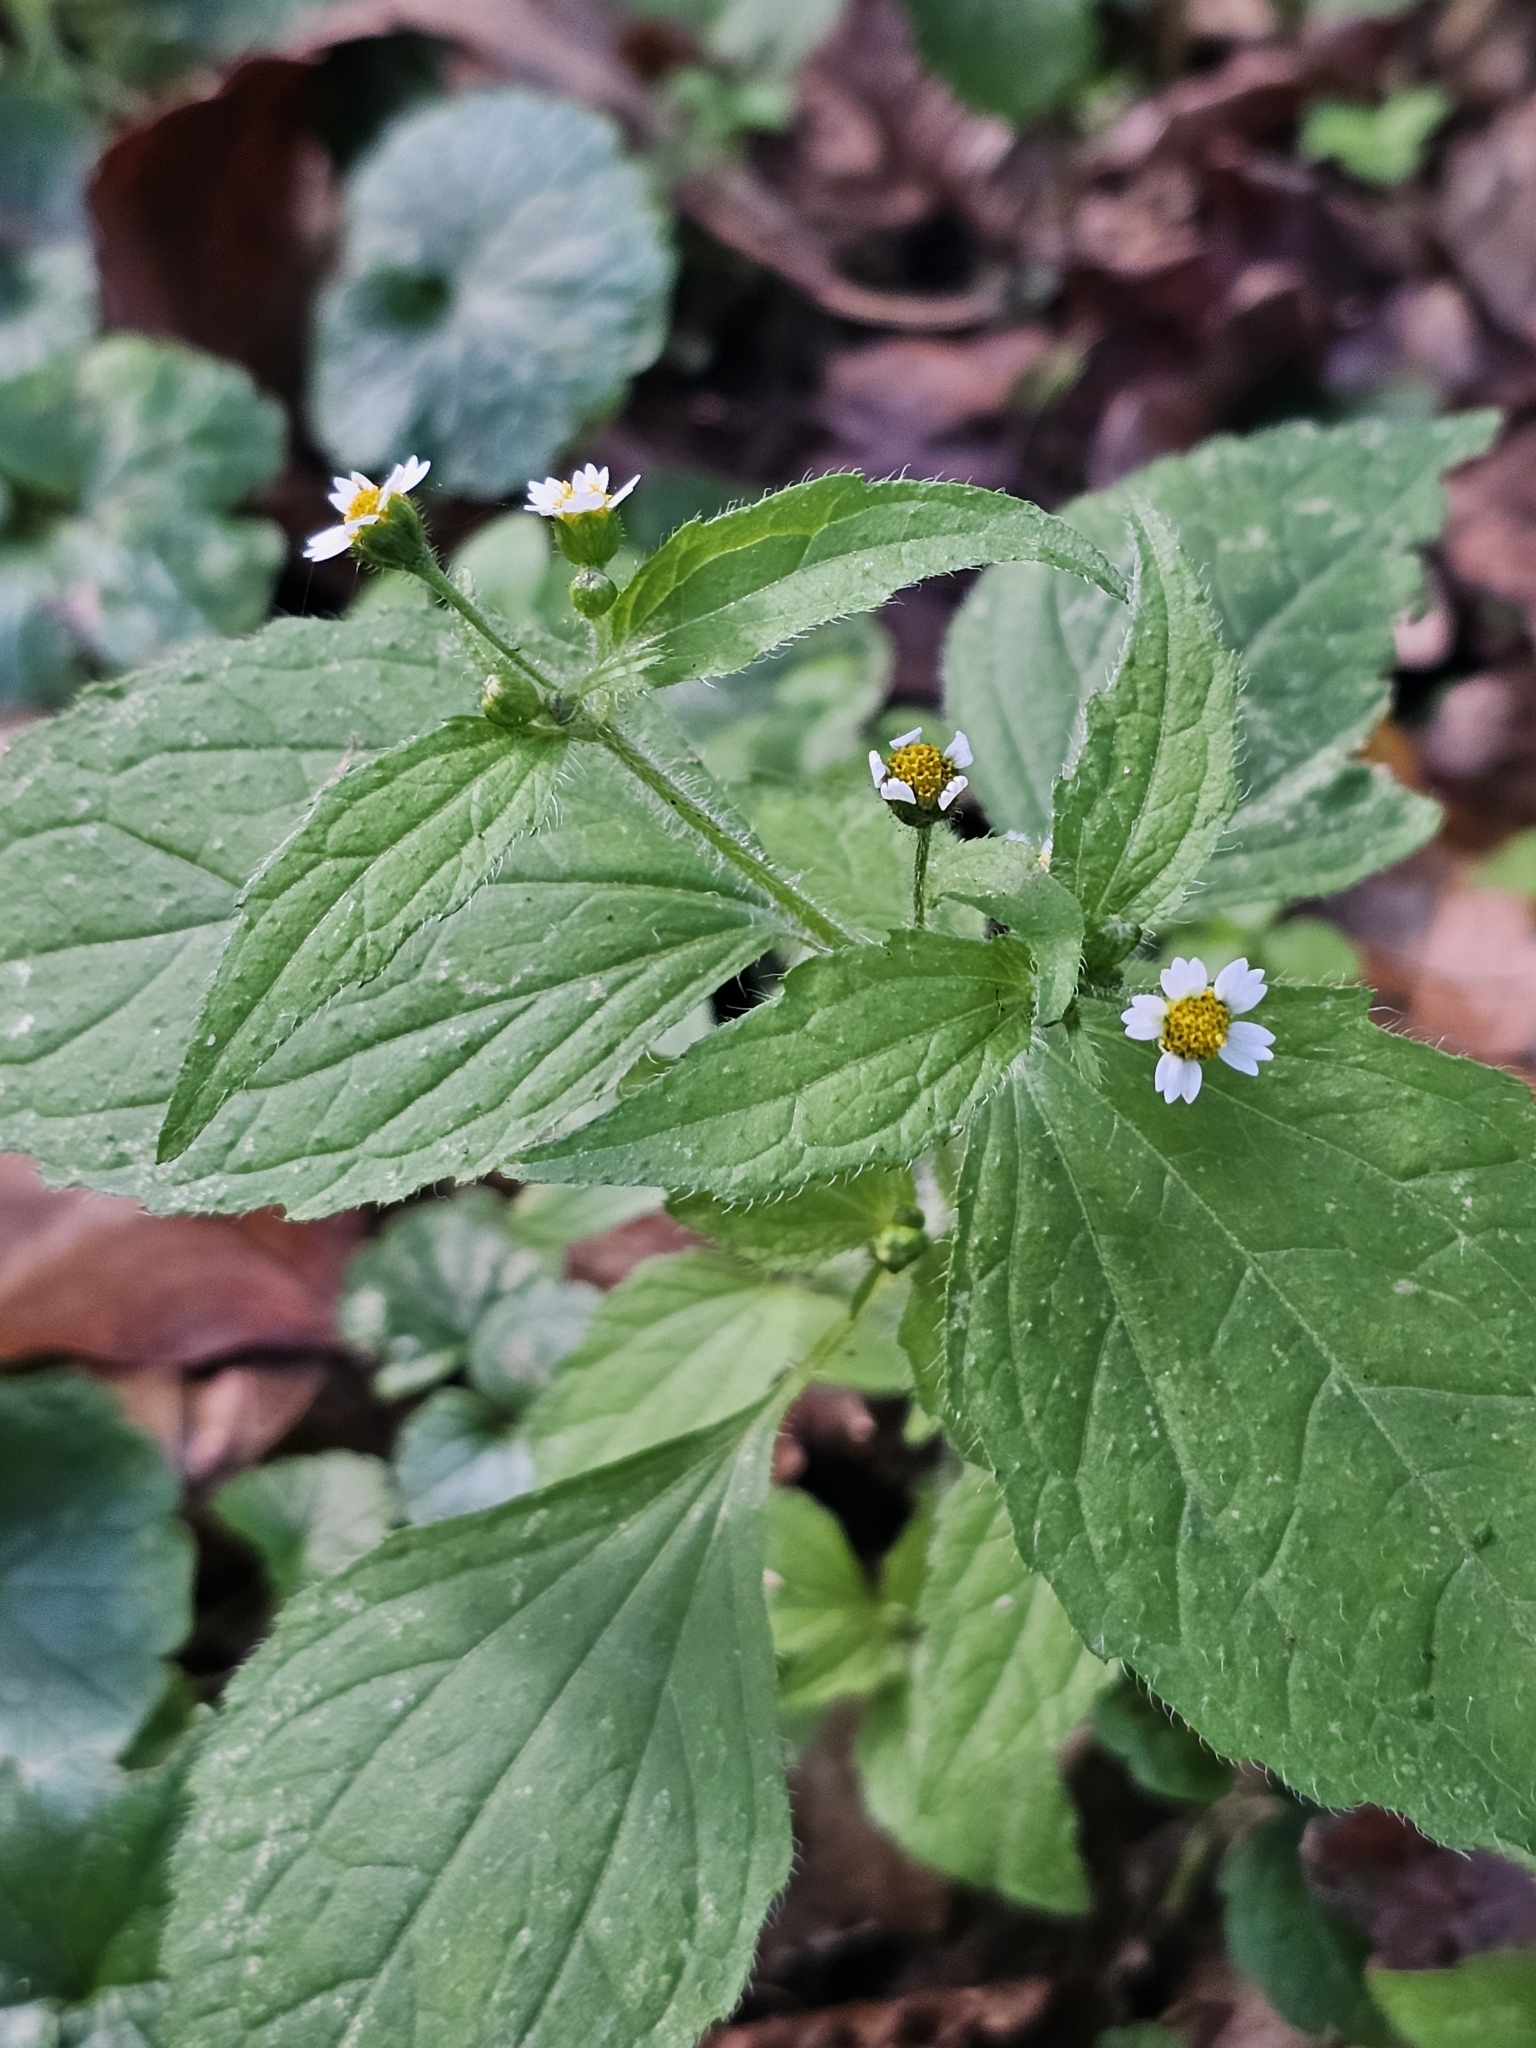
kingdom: Plantae
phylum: Tracheophyta
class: Magnoliopsida
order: Asterales
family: Asteraceae
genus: Galinsoga
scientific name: Galinsoga quadriradiata
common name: Shaggy soldier
